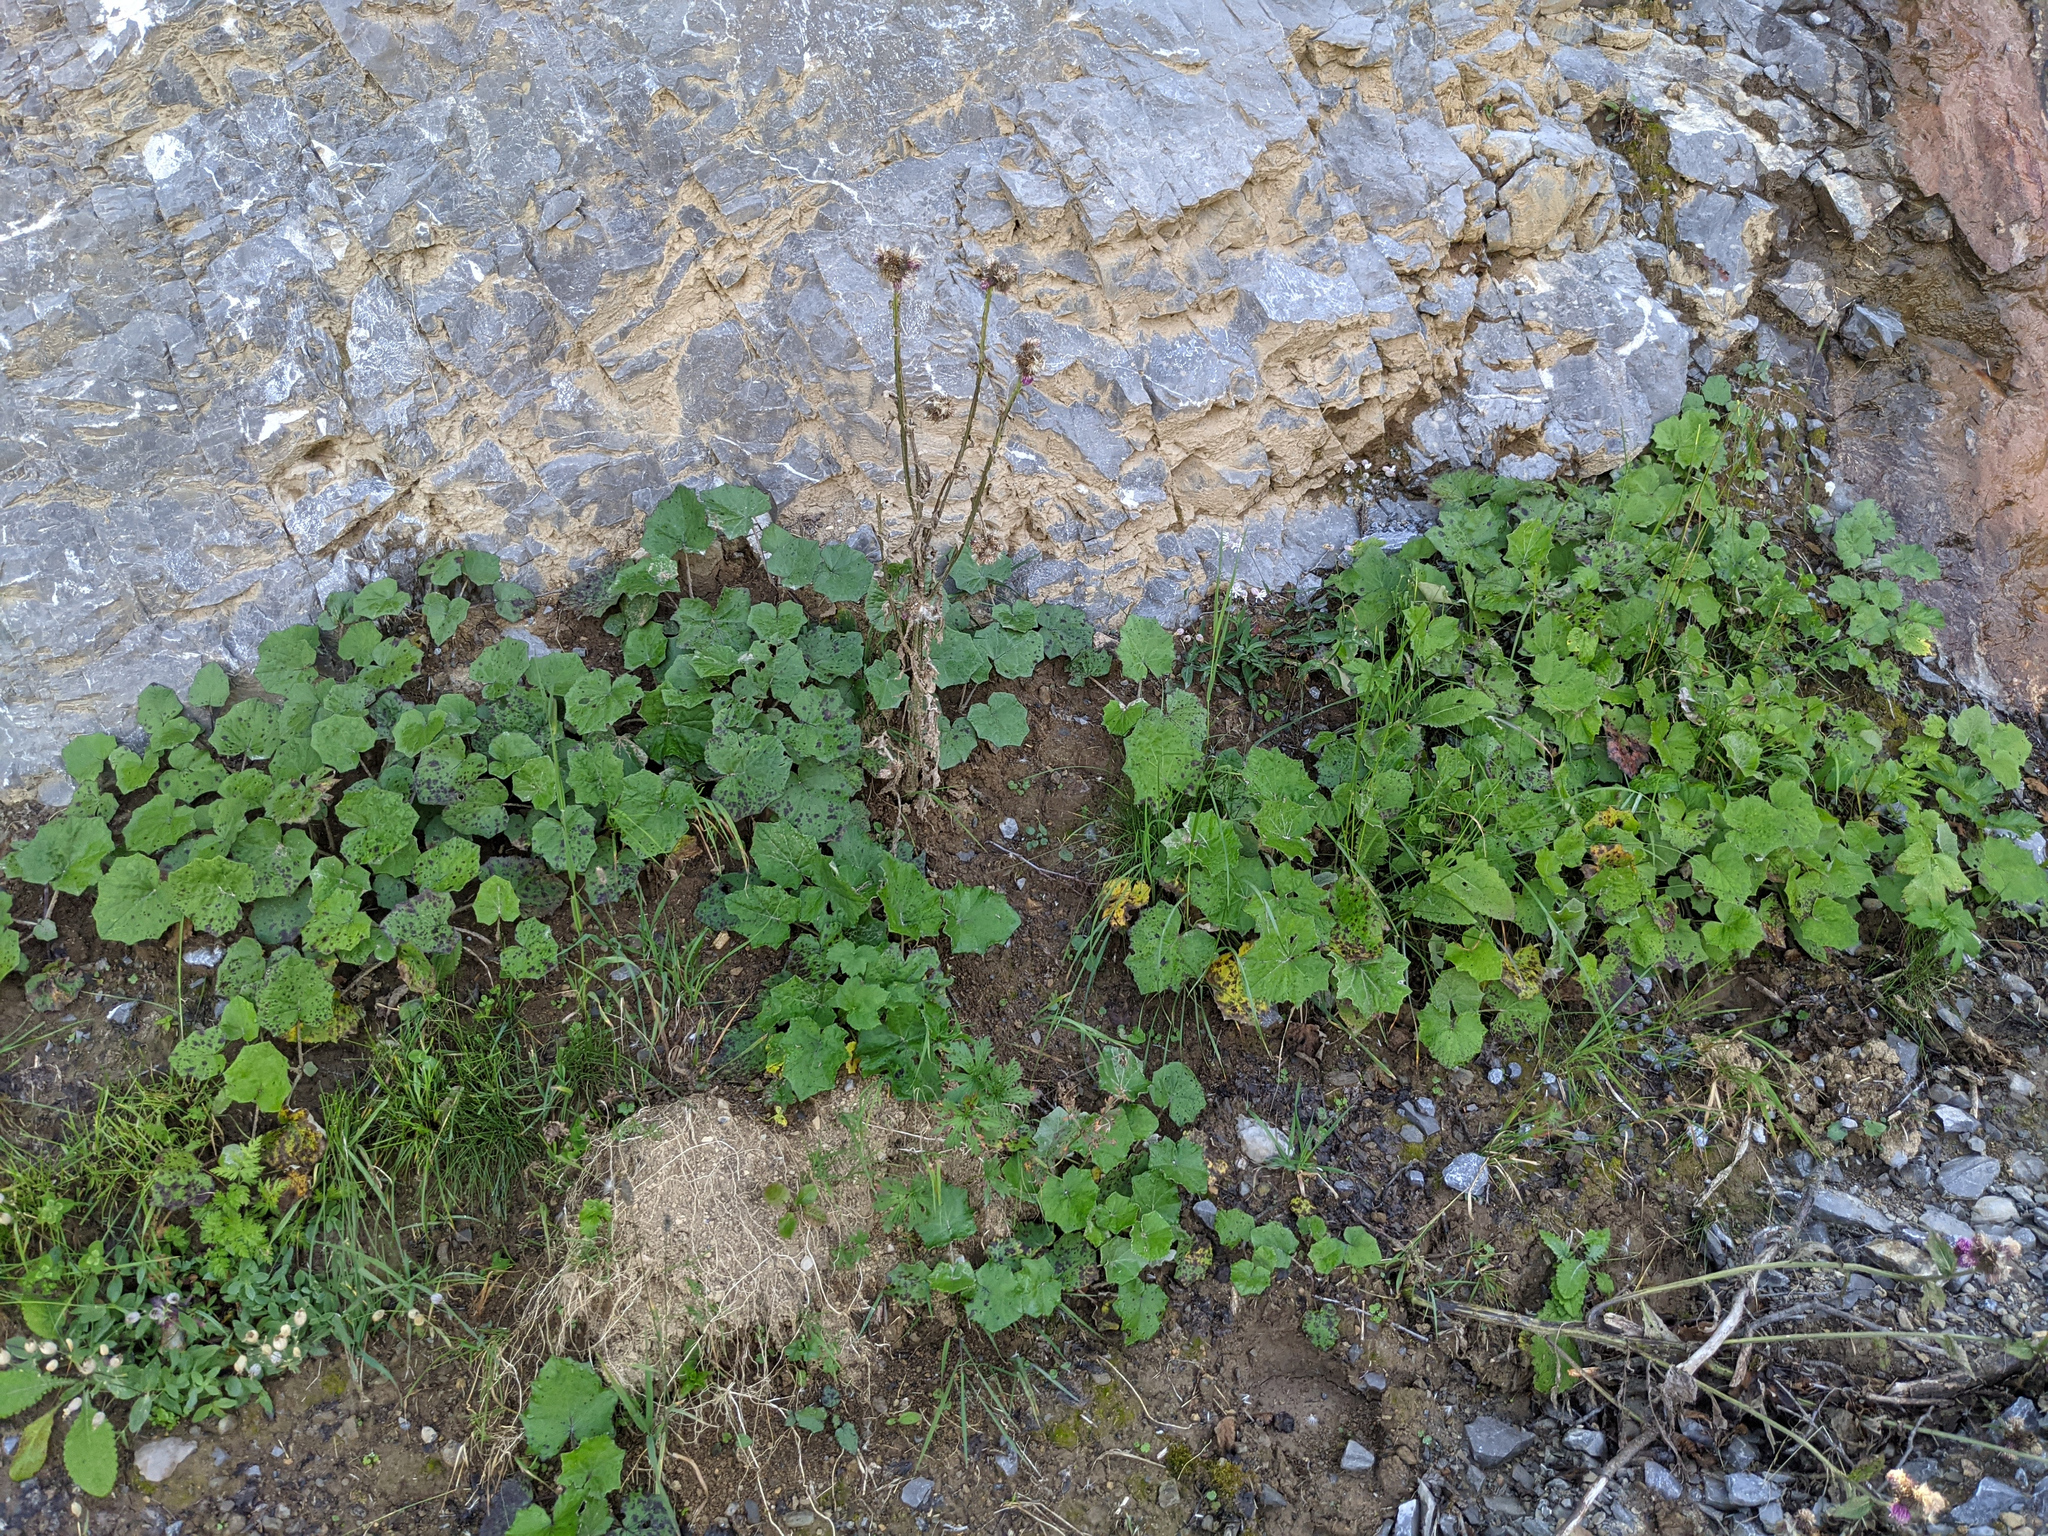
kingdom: Plantae
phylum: Tracheophyta
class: Magnoliopsida
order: Asterales
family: Asteraceae
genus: Tussilago
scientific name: Tussilago farfara
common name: Coltsfoot
